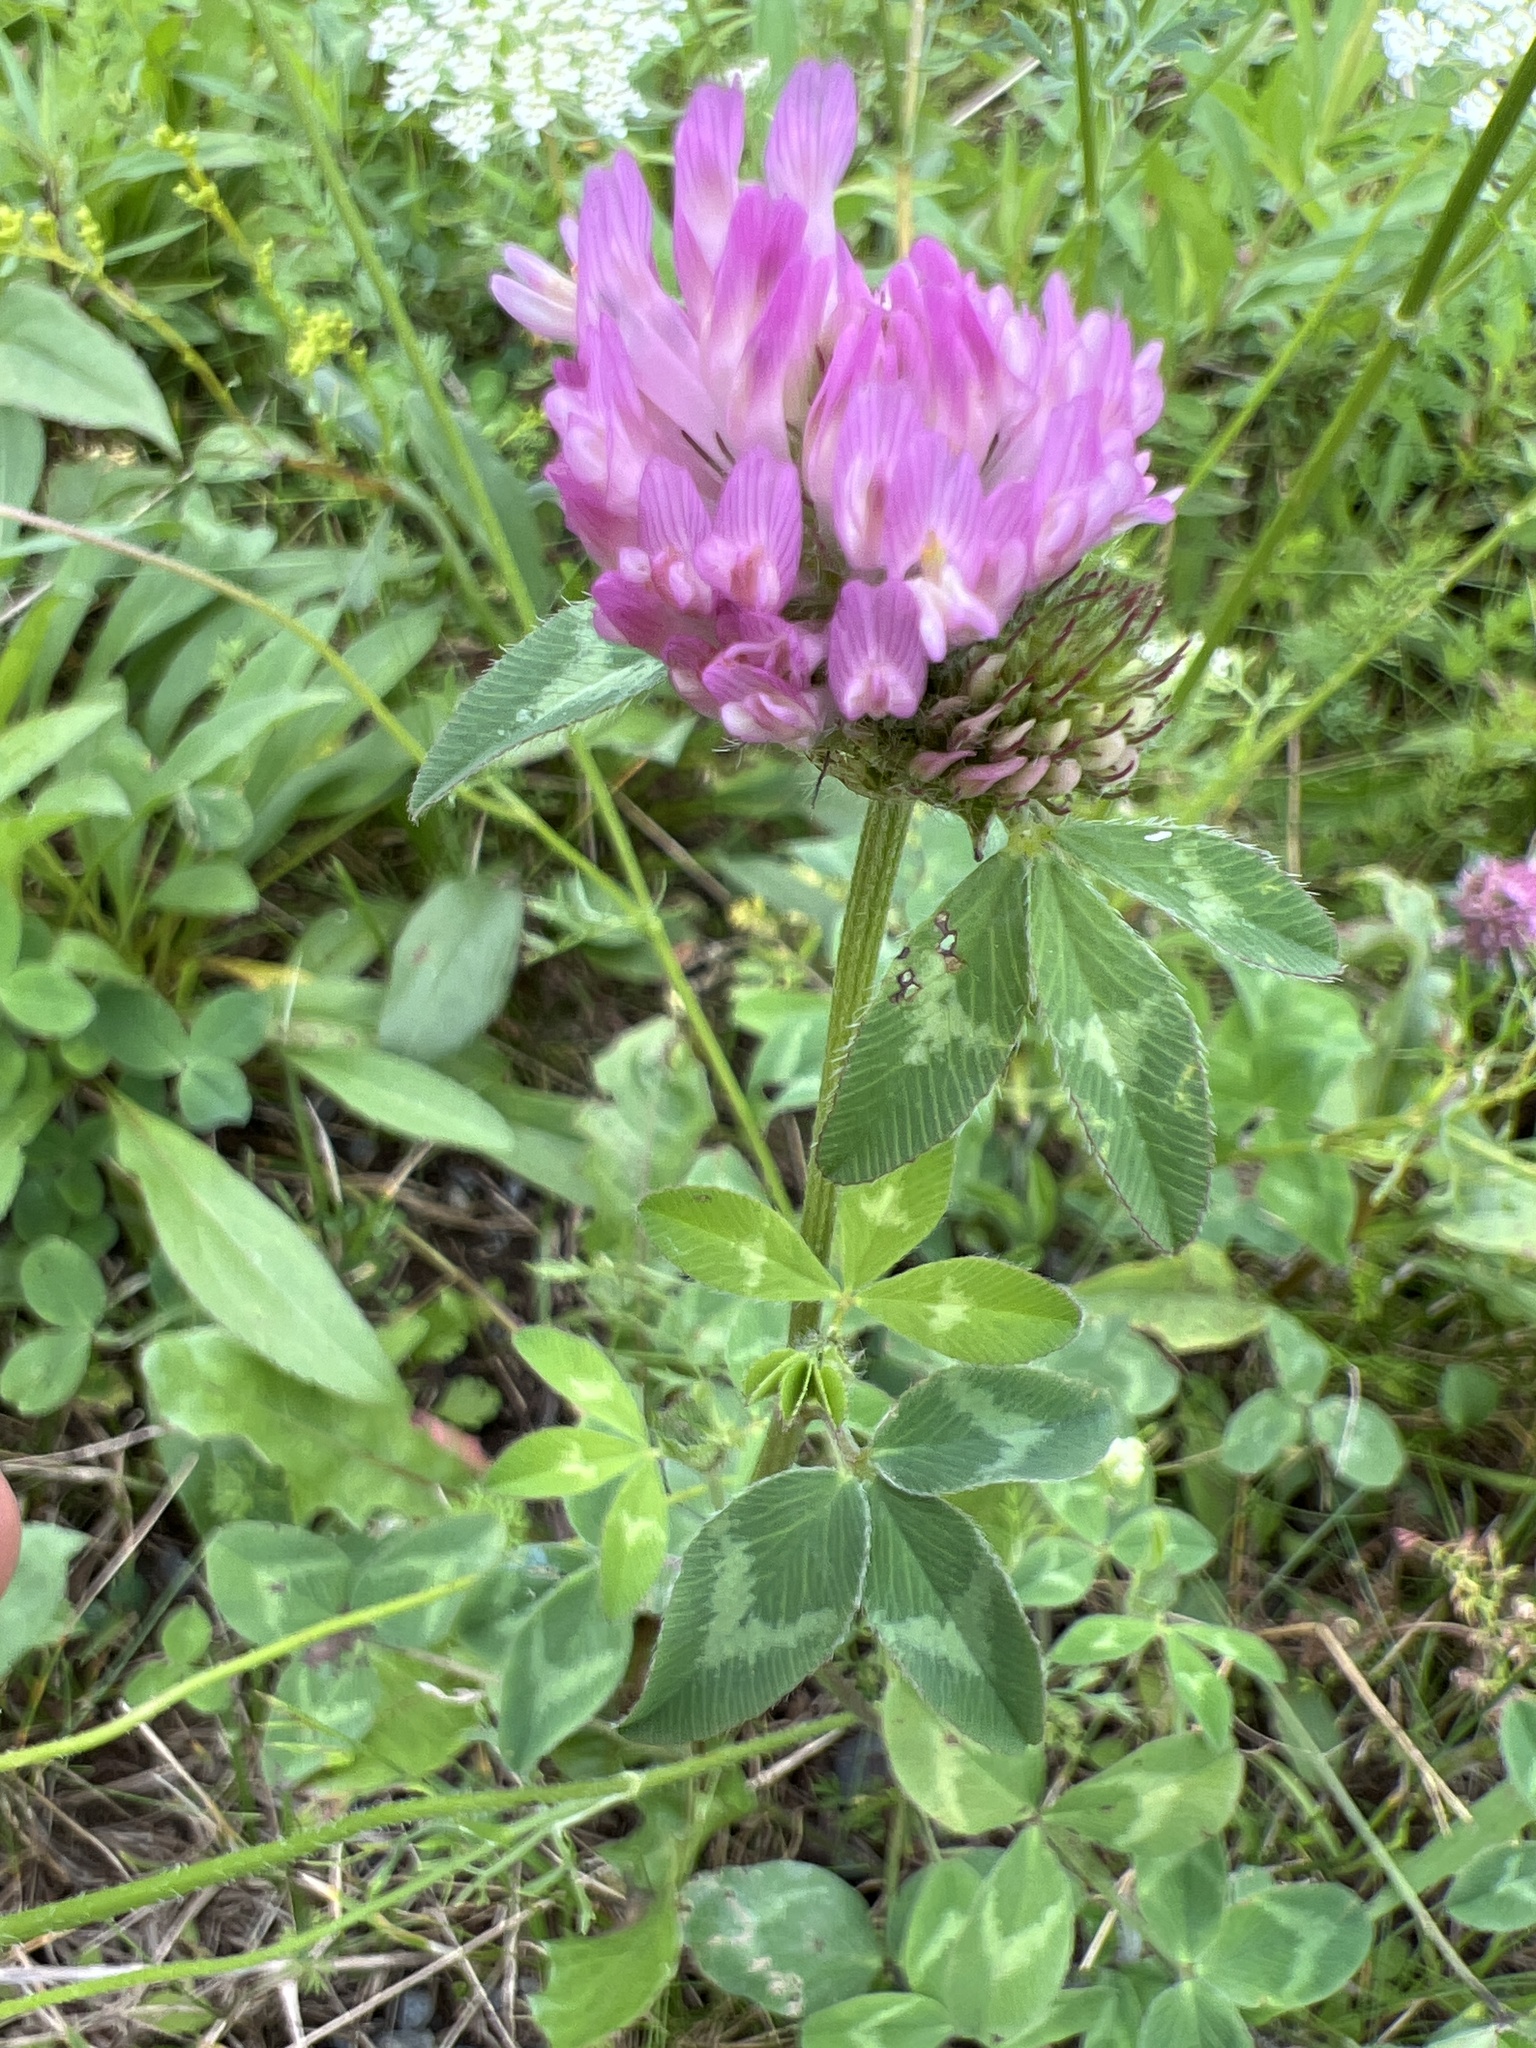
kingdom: Plantae
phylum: Tracheophyta
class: Magnoliopsida
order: Fabales
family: Fabaceae
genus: Trifolium
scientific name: Trifolium pratense
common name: Red clover
